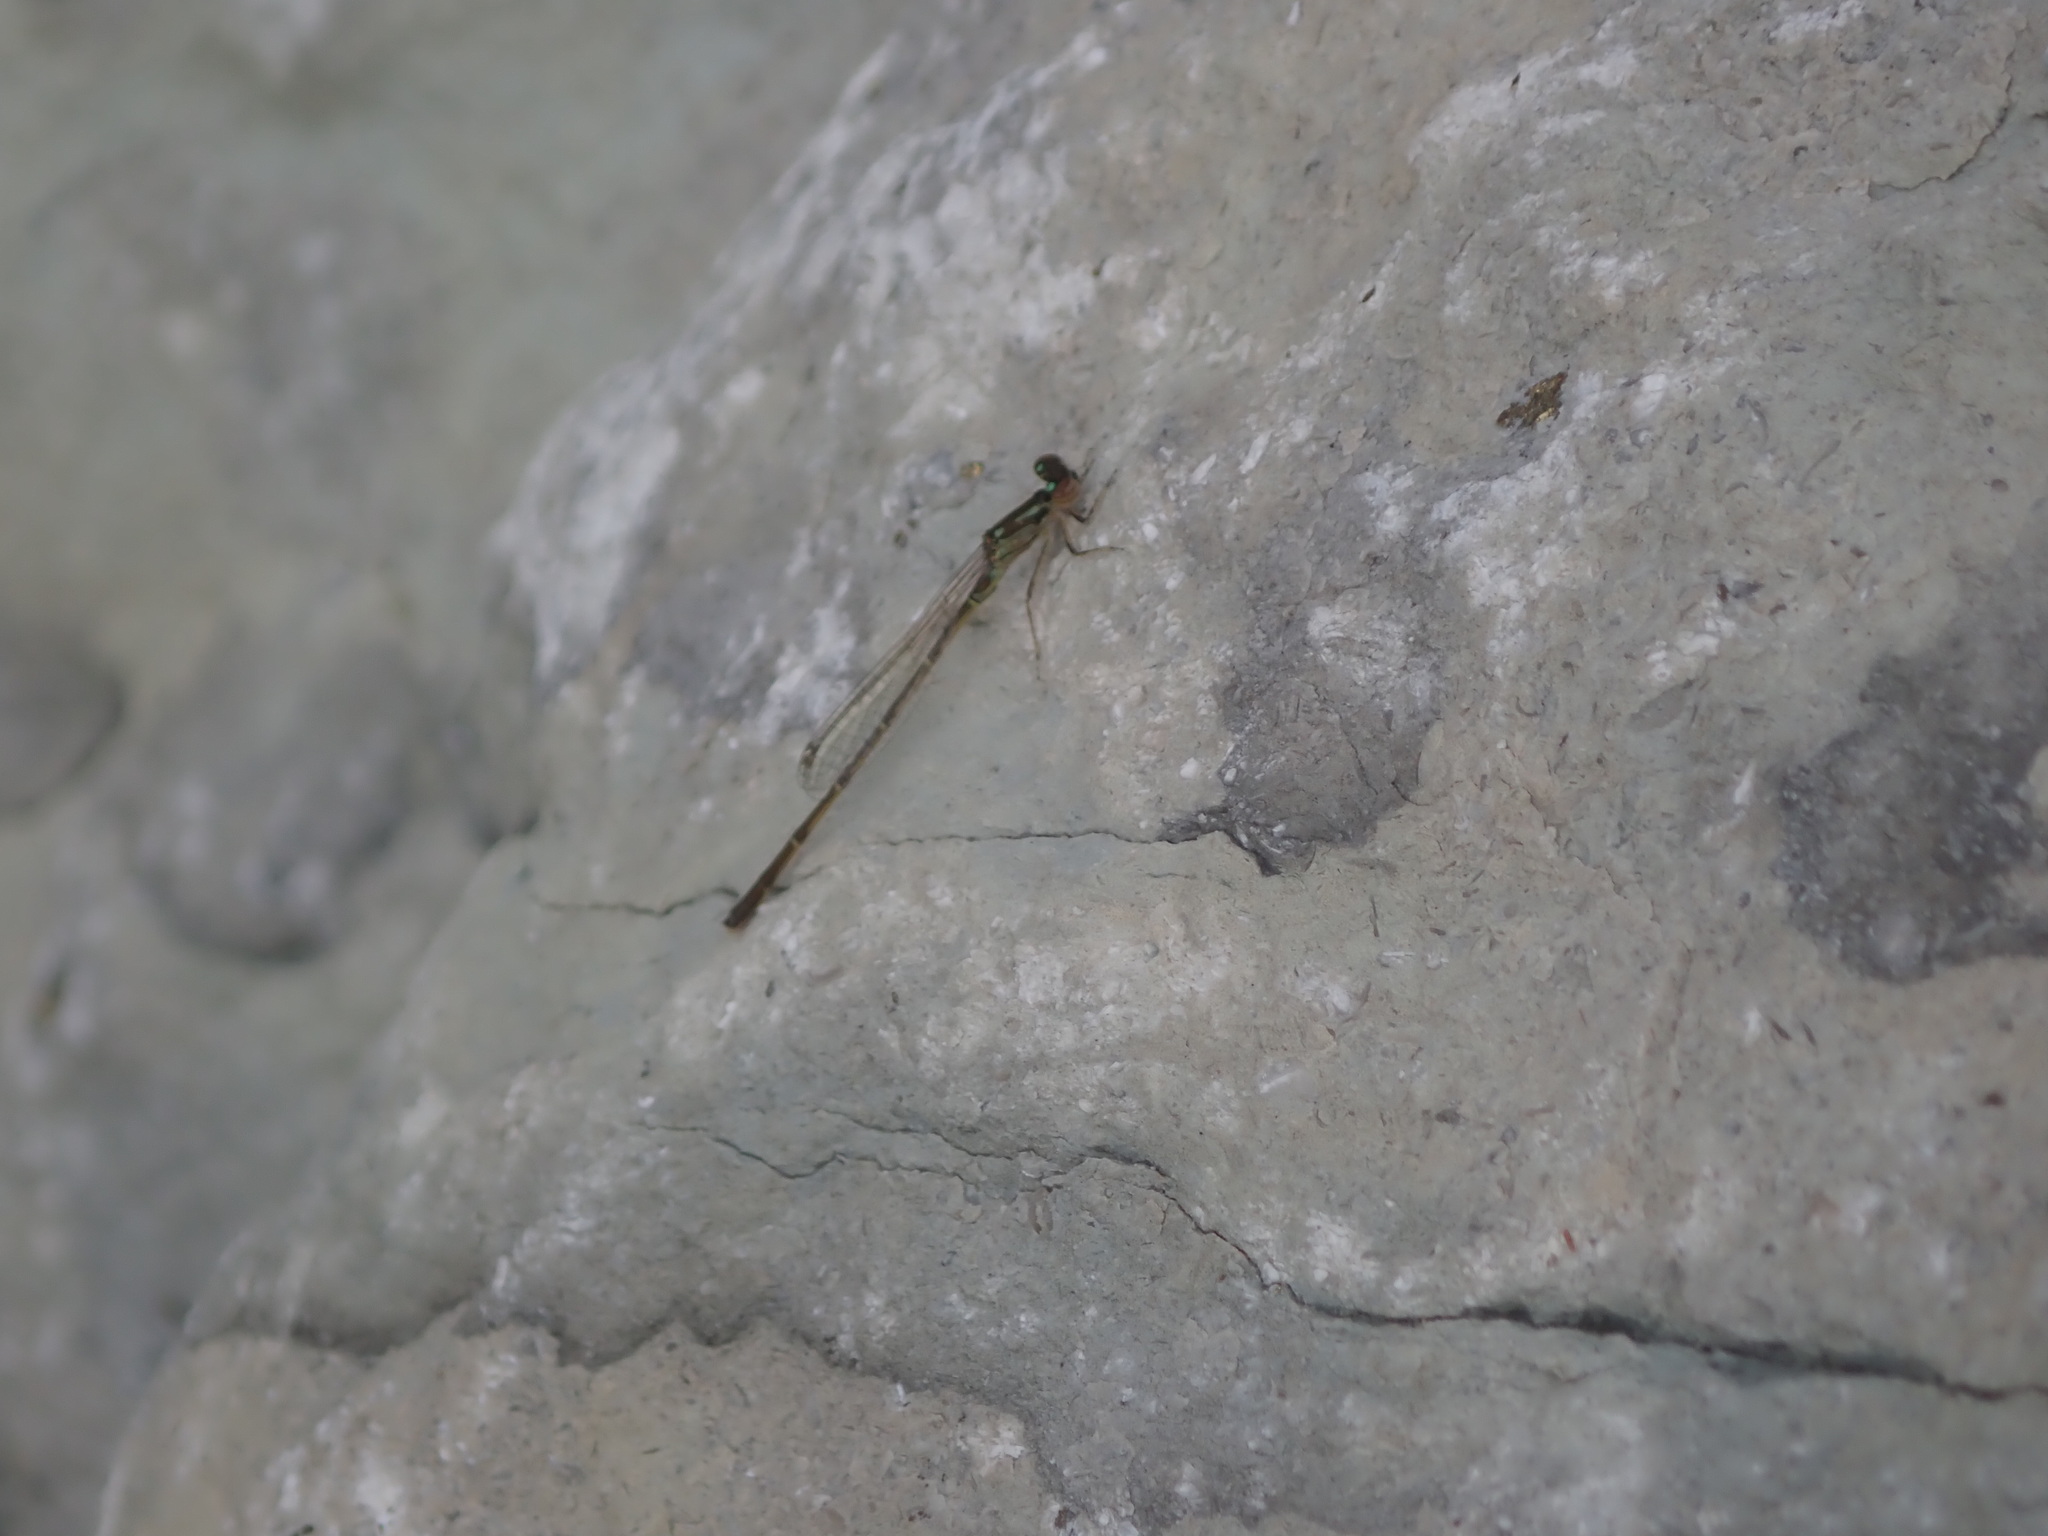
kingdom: Animalia
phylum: Arthropoda
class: Insecta
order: Odonata
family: Coenagrionidae
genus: Ischnura
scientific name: Ischnura posita
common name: Fragile forktail
